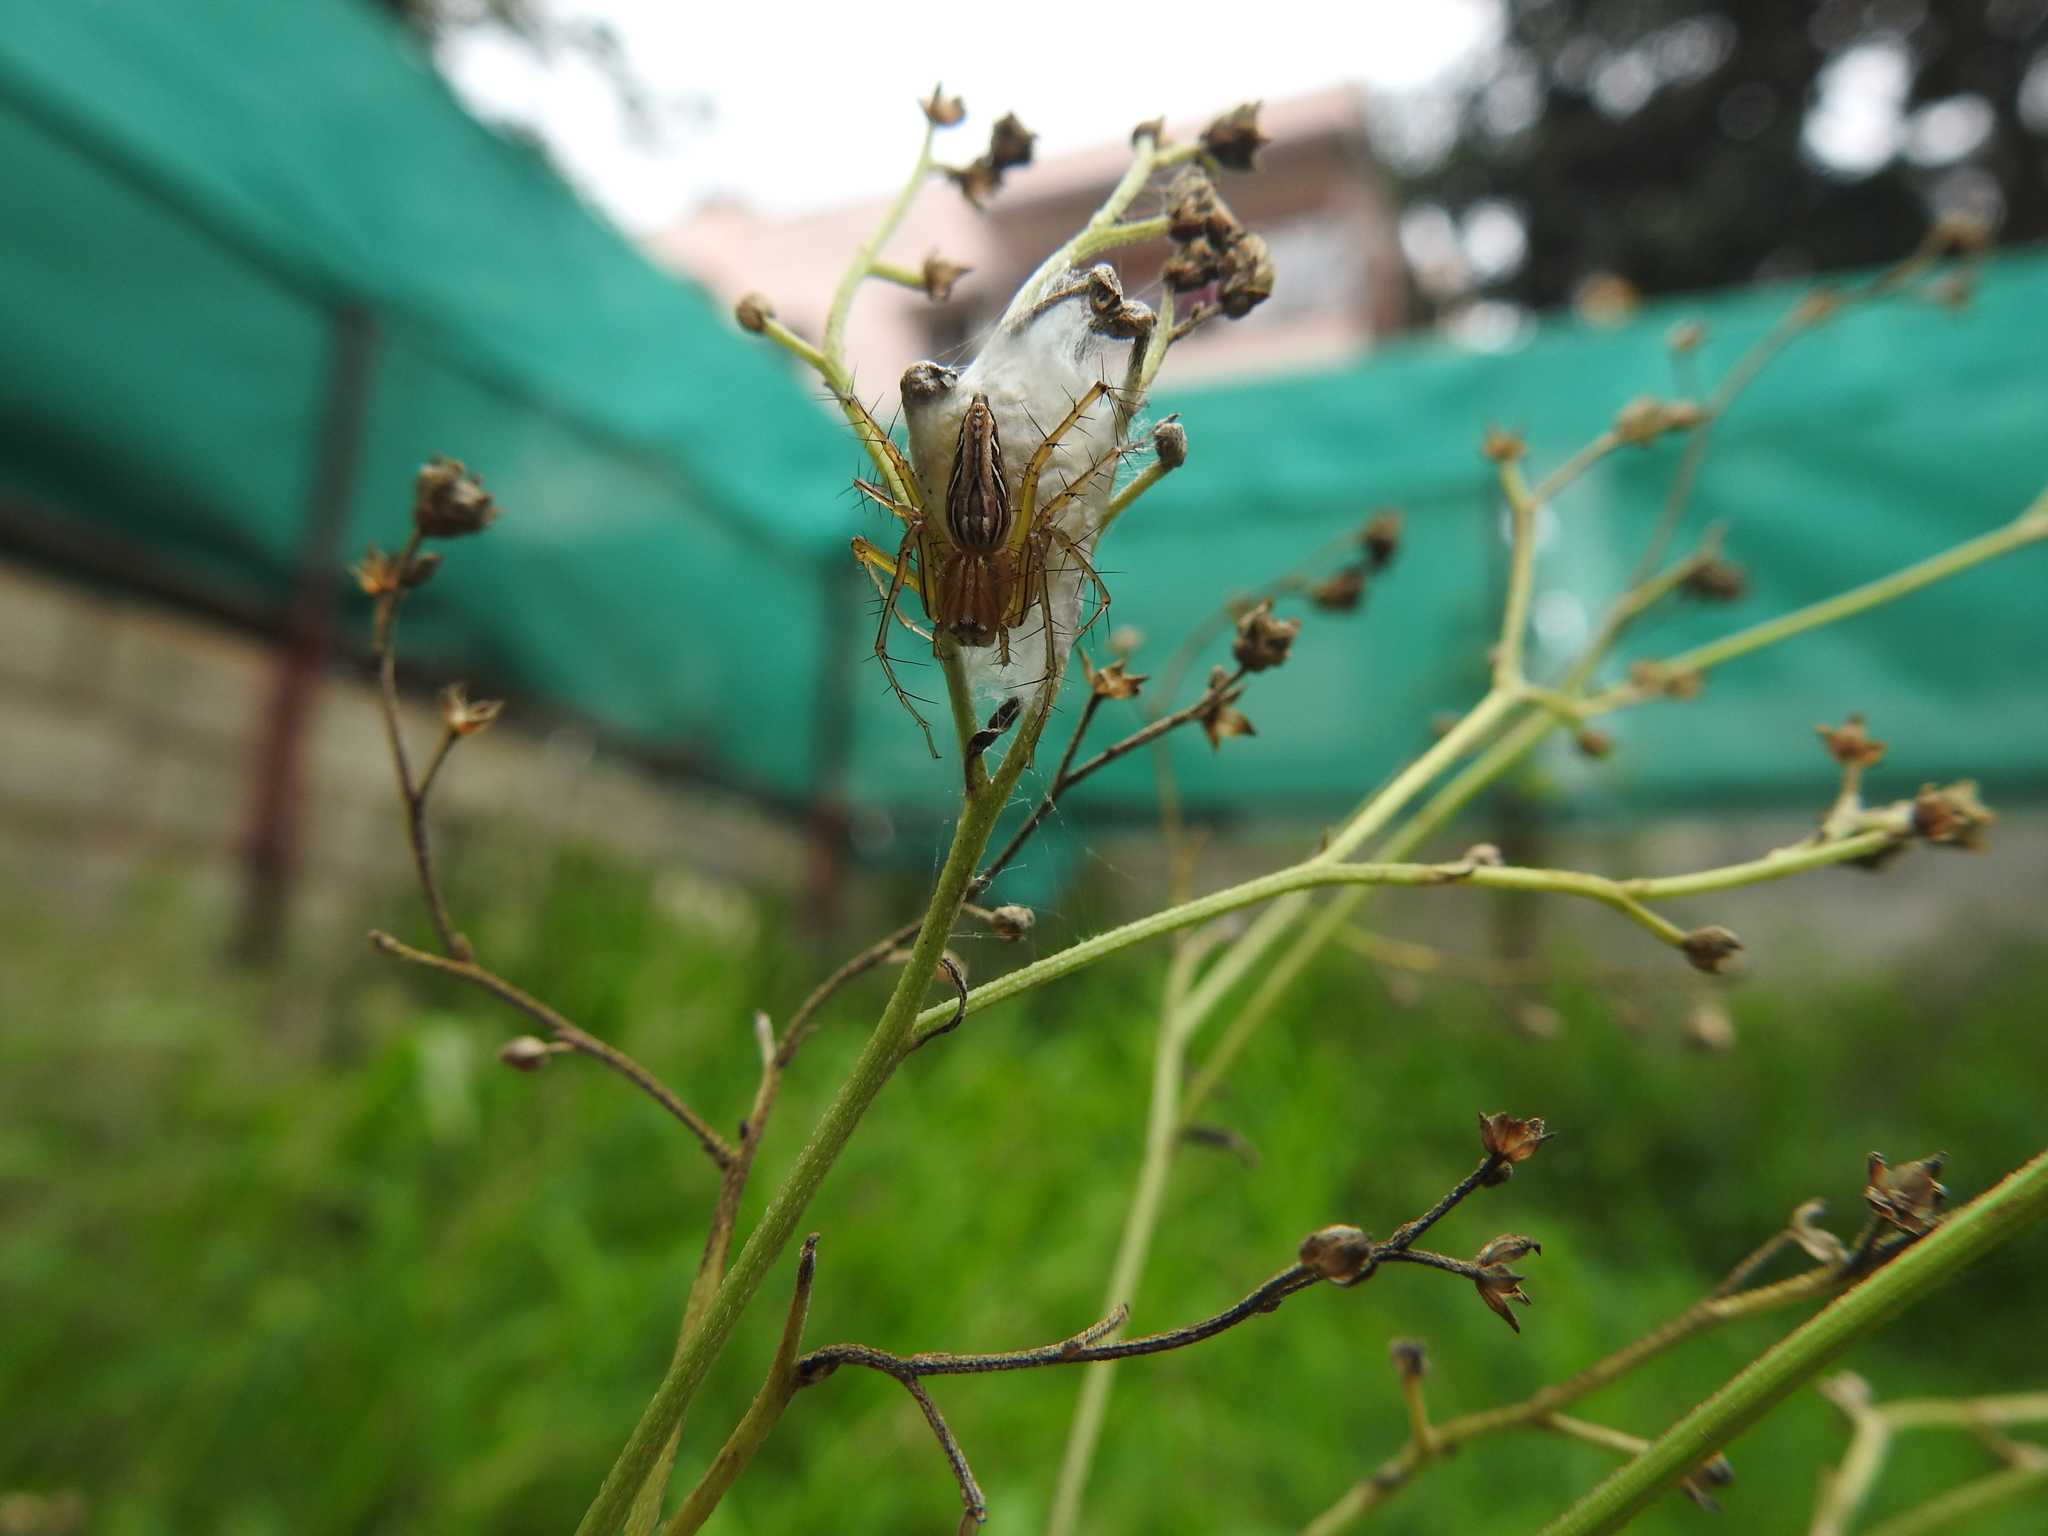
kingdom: Animalia
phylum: Arthropoda
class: Arachnida
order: Araneae
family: Oxyopidae
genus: Oxyopes
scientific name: Oxyopes macilentus
